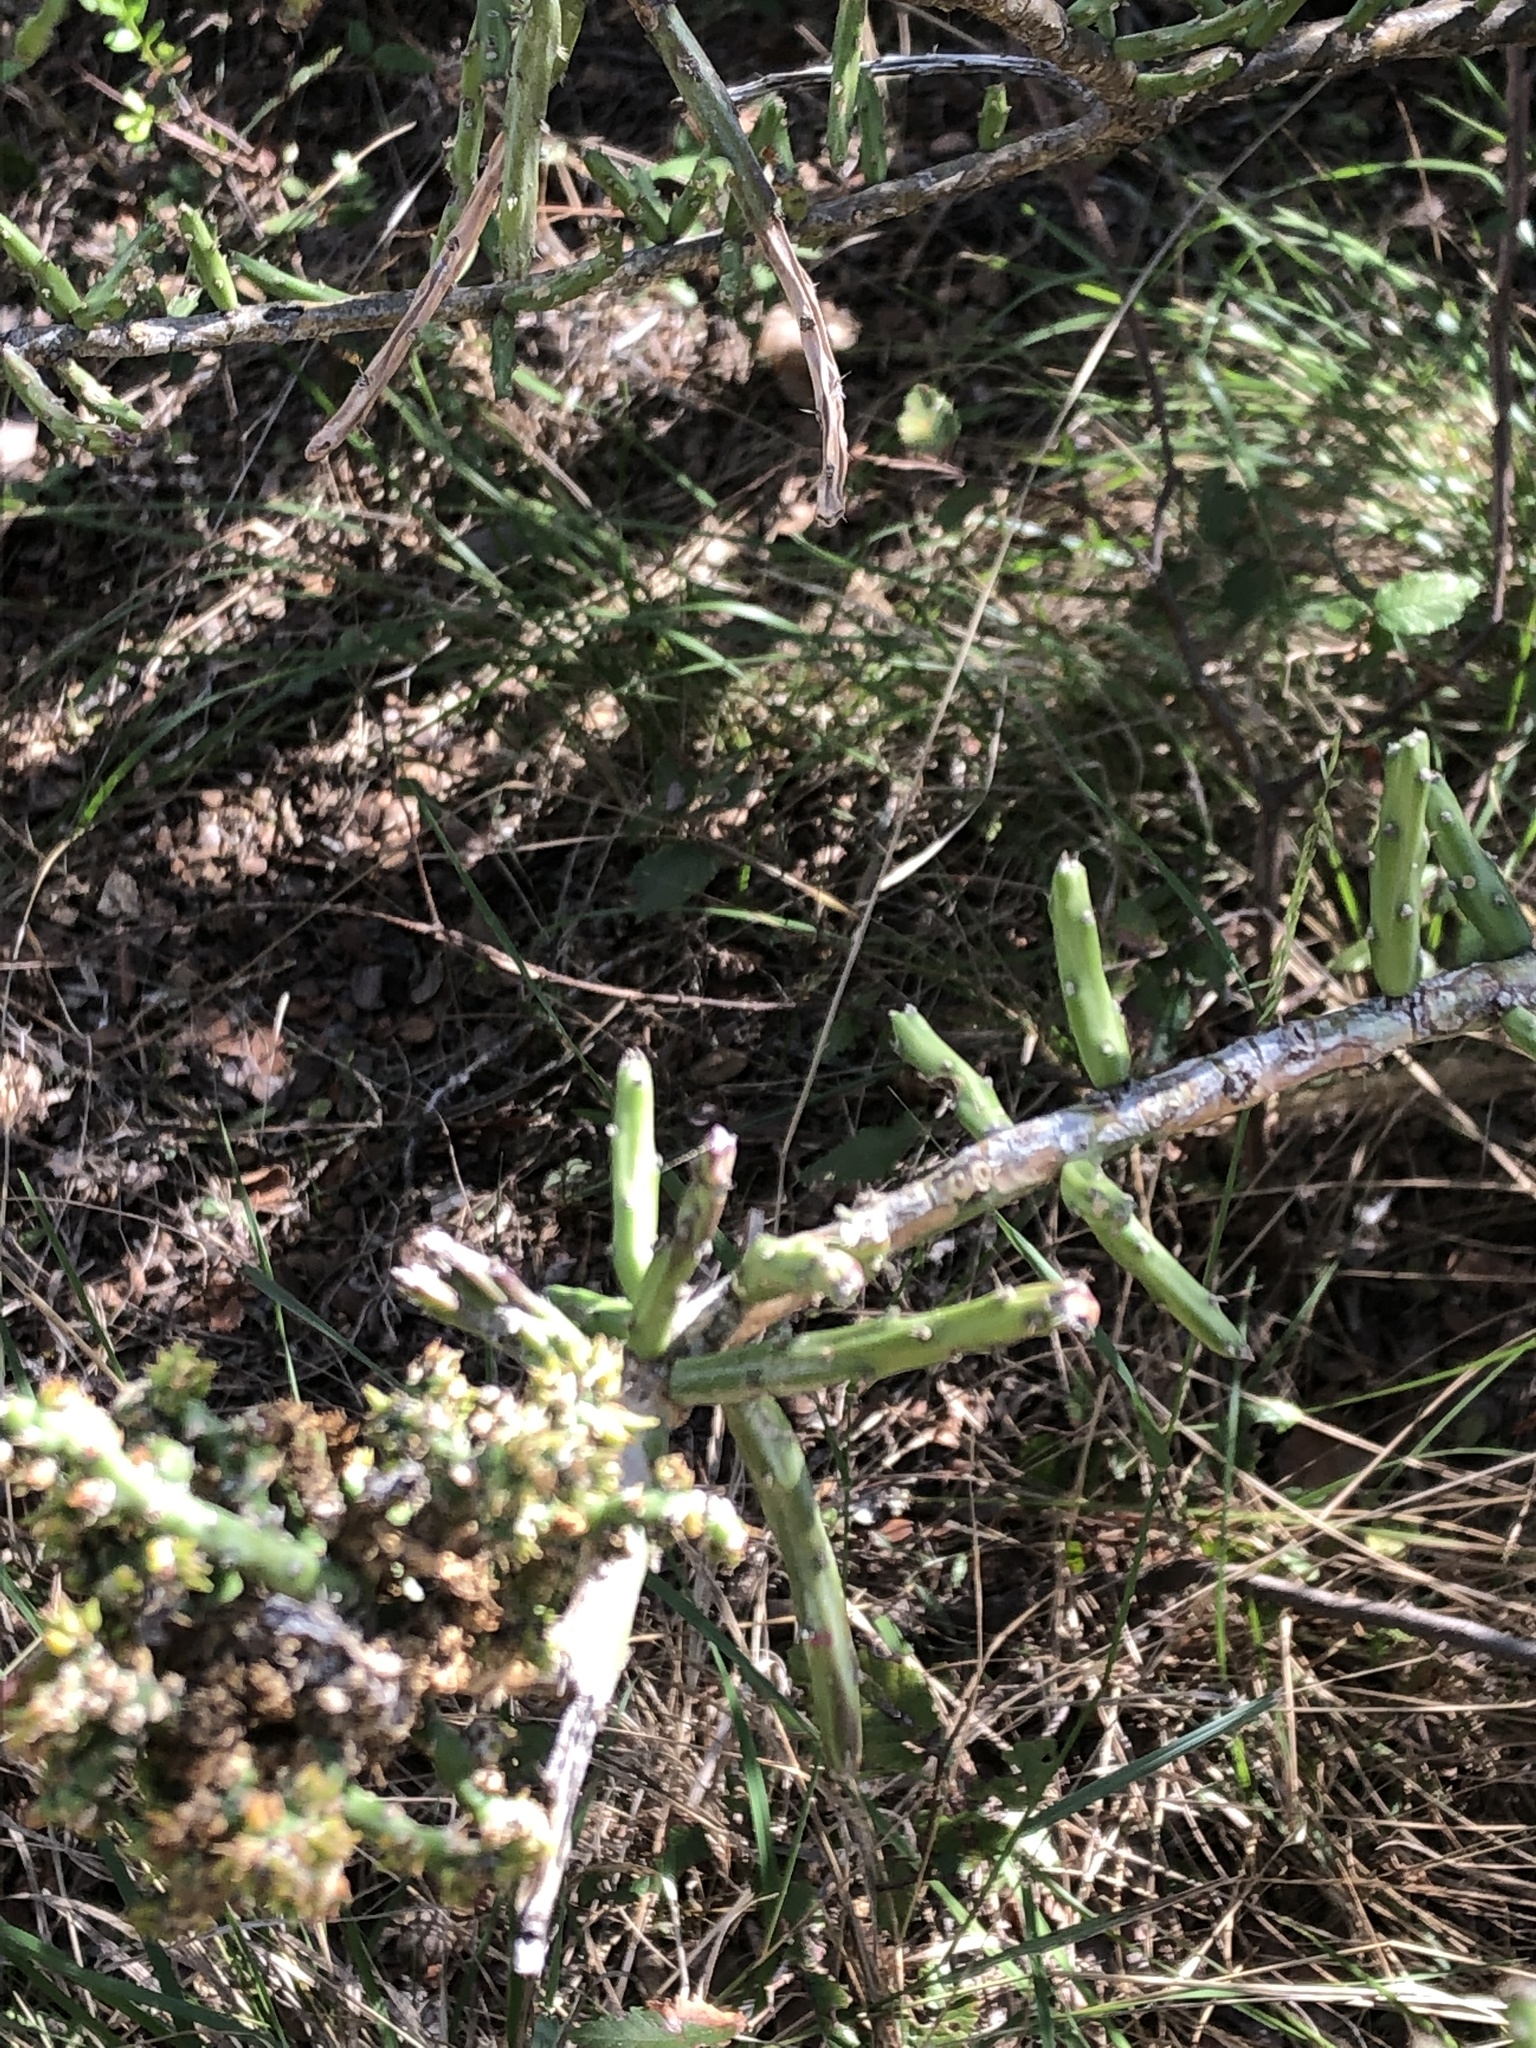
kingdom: Plantae
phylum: Tracheophyta
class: Magnoliopsida
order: Caryophyllales
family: Cactaceae
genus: Cylindropuntia
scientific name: Cylindropuntia leptocaulis
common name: Christmas cactus
